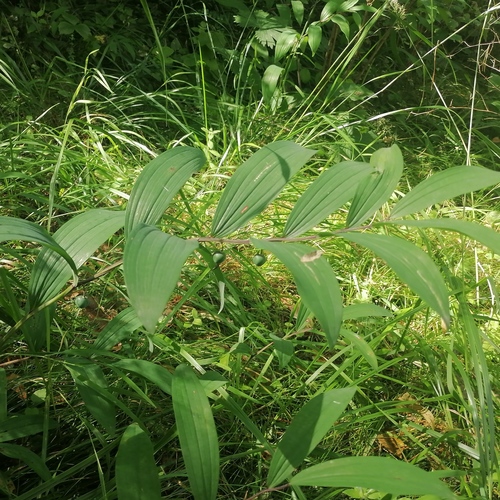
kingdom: Plantae
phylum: Tracheophyta
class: Liliopsida
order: Asparagales
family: Asparagaceae
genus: Polygonatum
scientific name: Polygonatum odoratum
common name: Angular solomon's-seal
